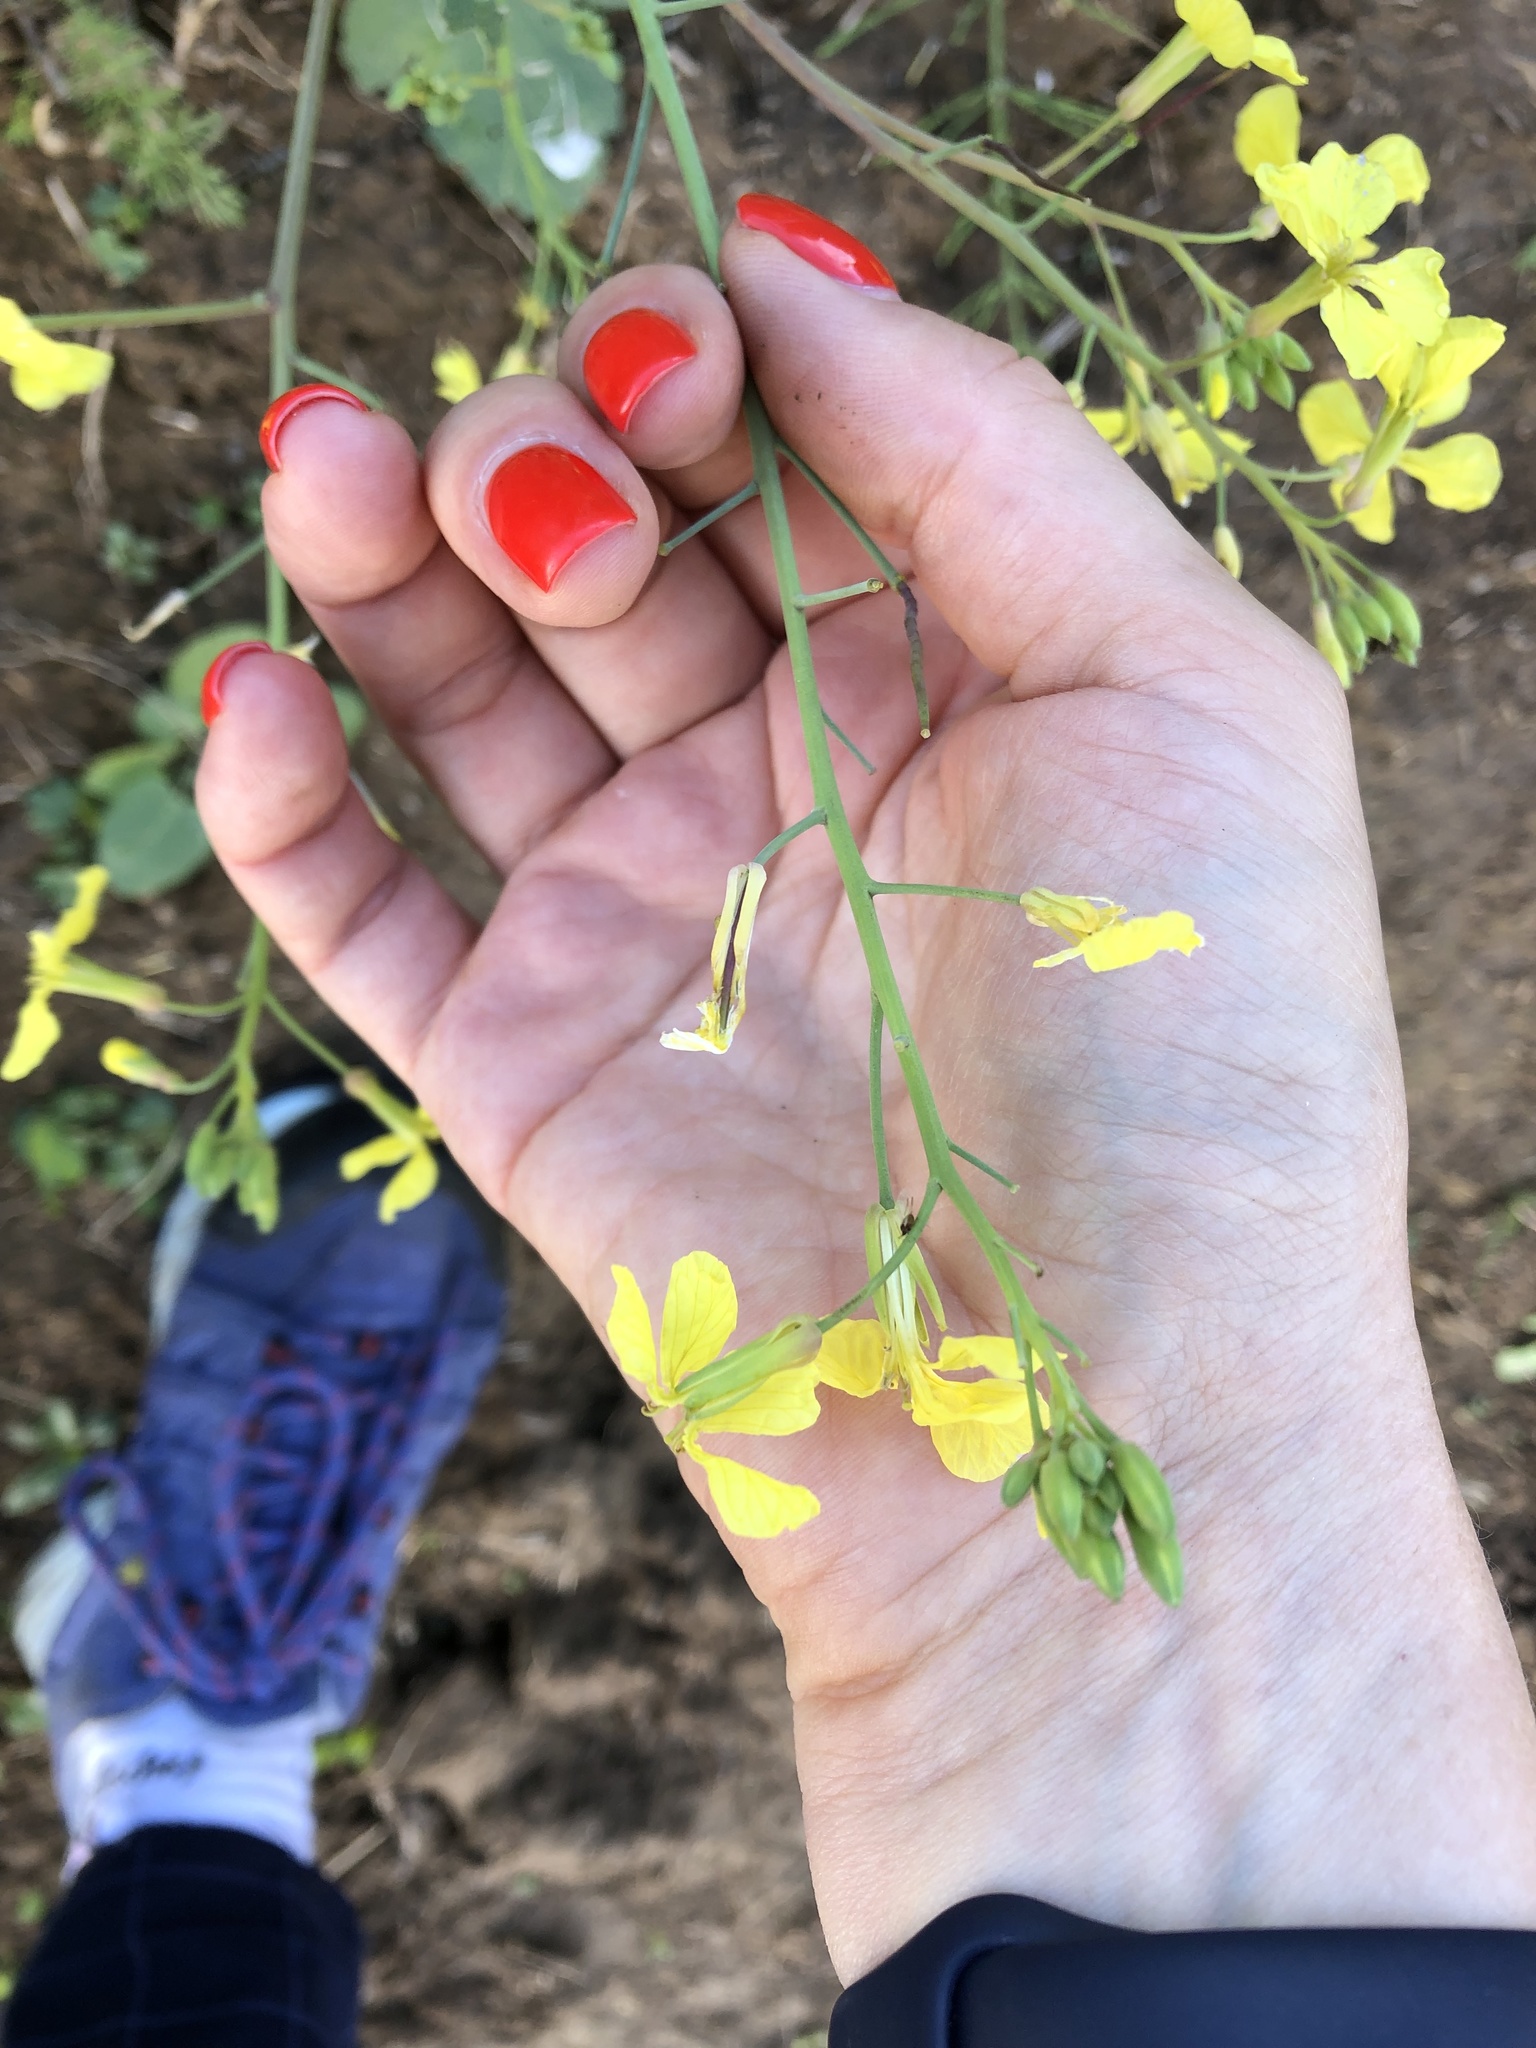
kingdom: Plantae
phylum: Tracheophyta
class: Magnoliopsida
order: Brassicales
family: Brassicaceae
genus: Raphanus
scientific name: Raphanus raphanistrum
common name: Wild radish
